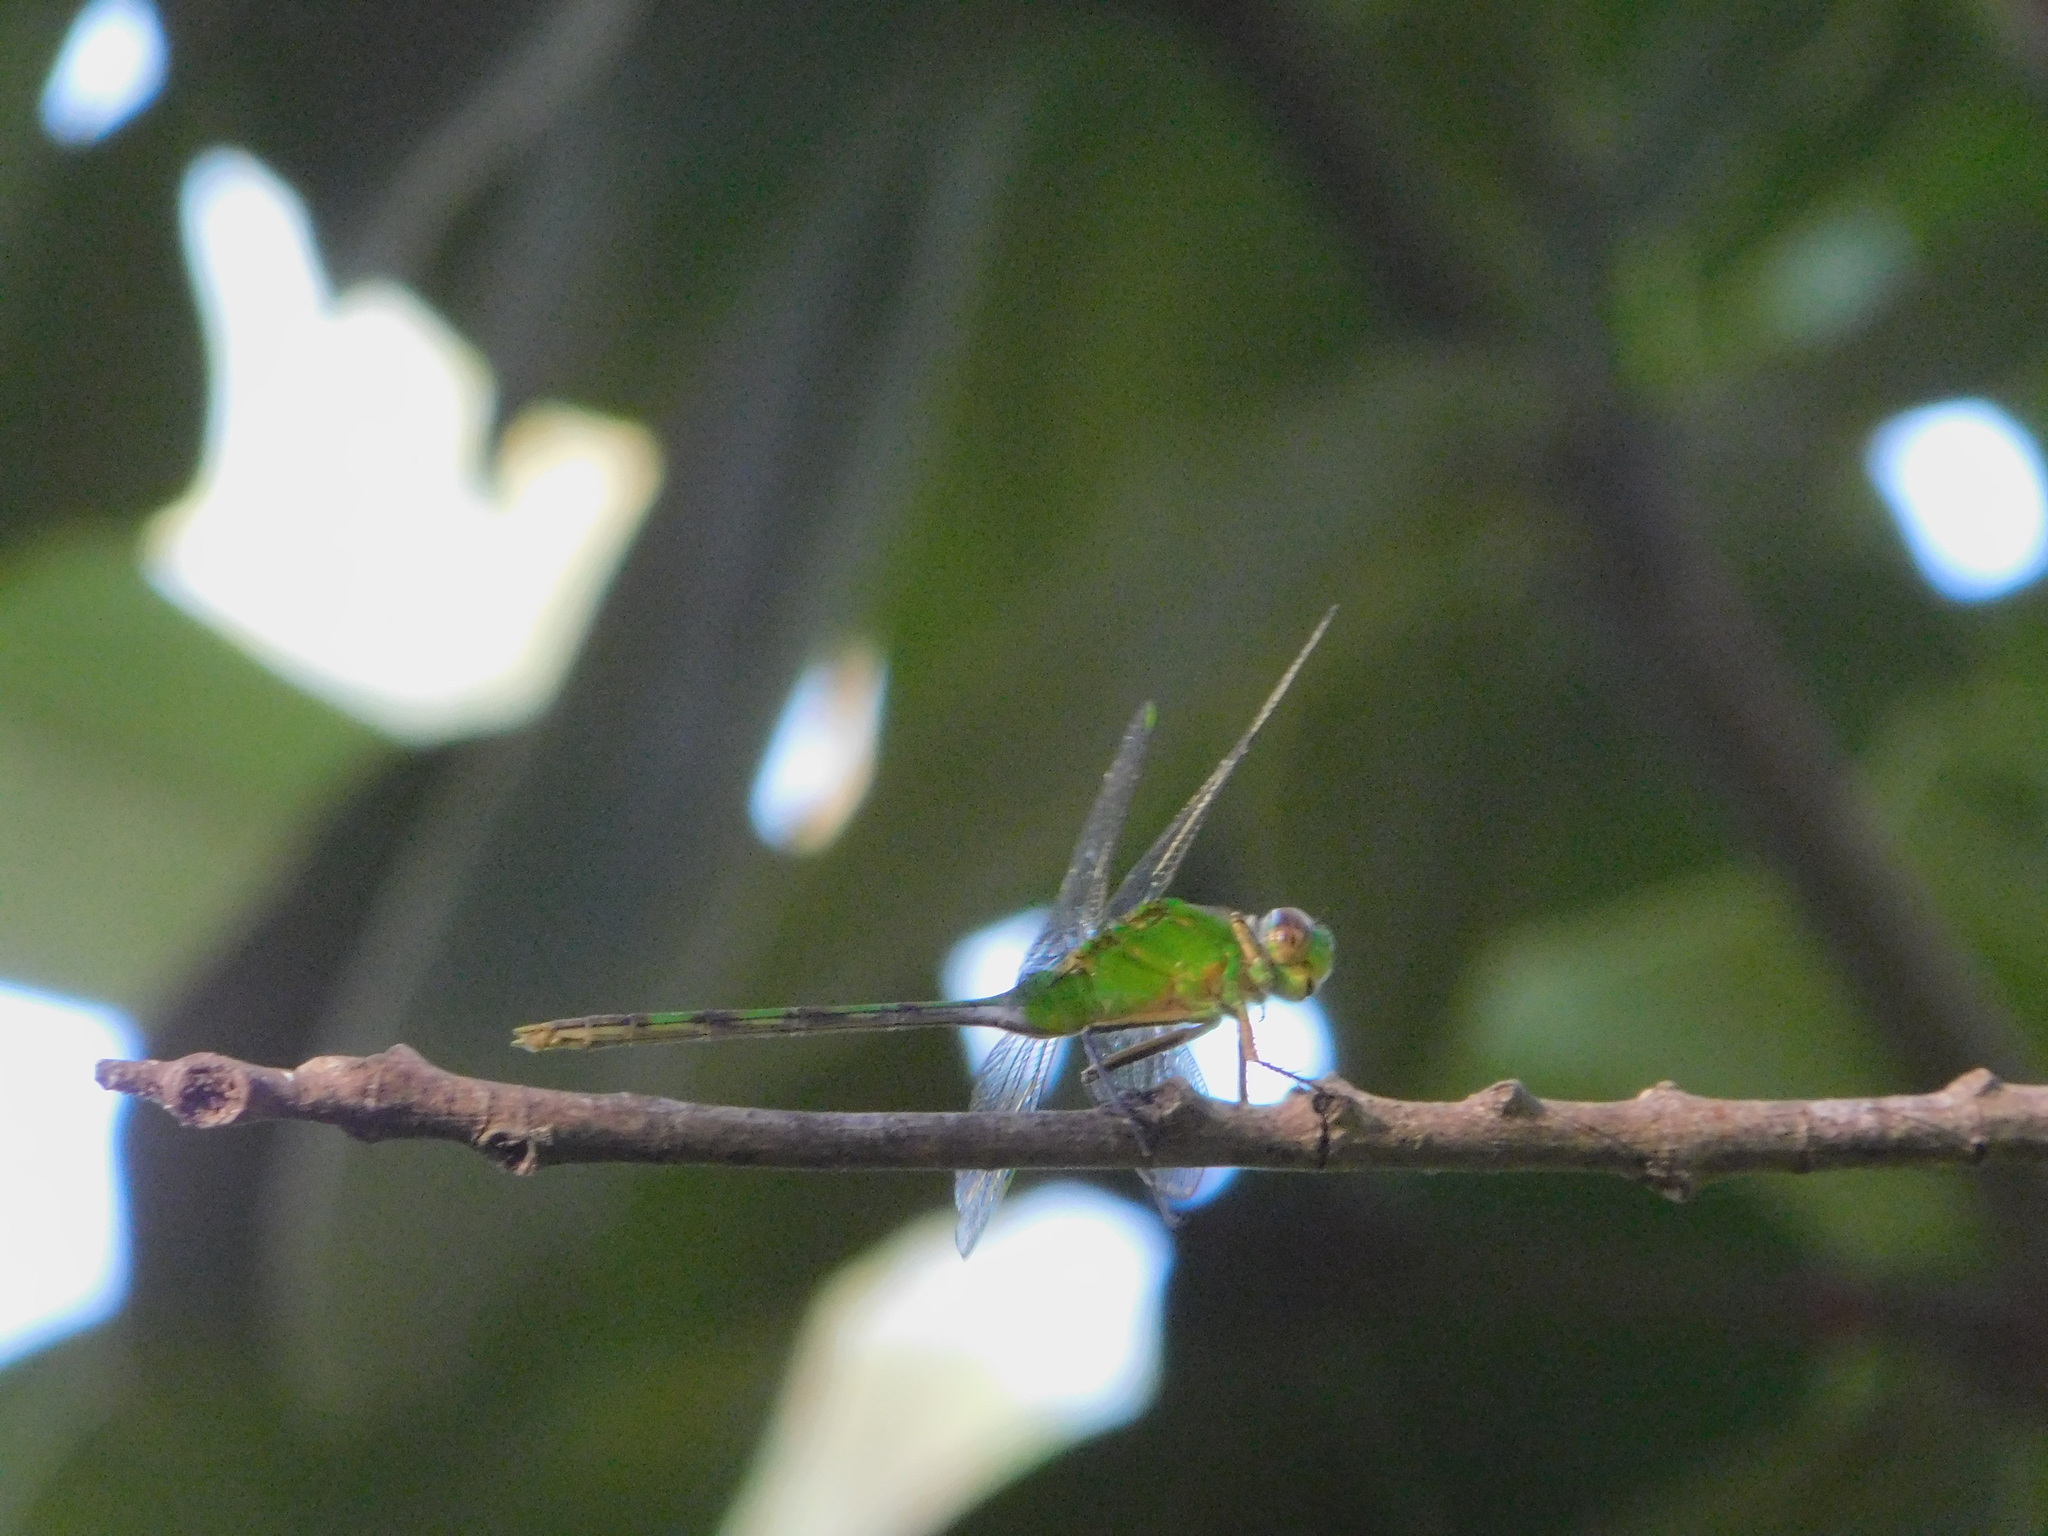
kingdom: Animalia
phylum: Arthropoda
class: Insecta
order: Odonata
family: Libellulidae
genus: Erythemis
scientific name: Erythemis vesiculosa
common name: Great pondhawk
